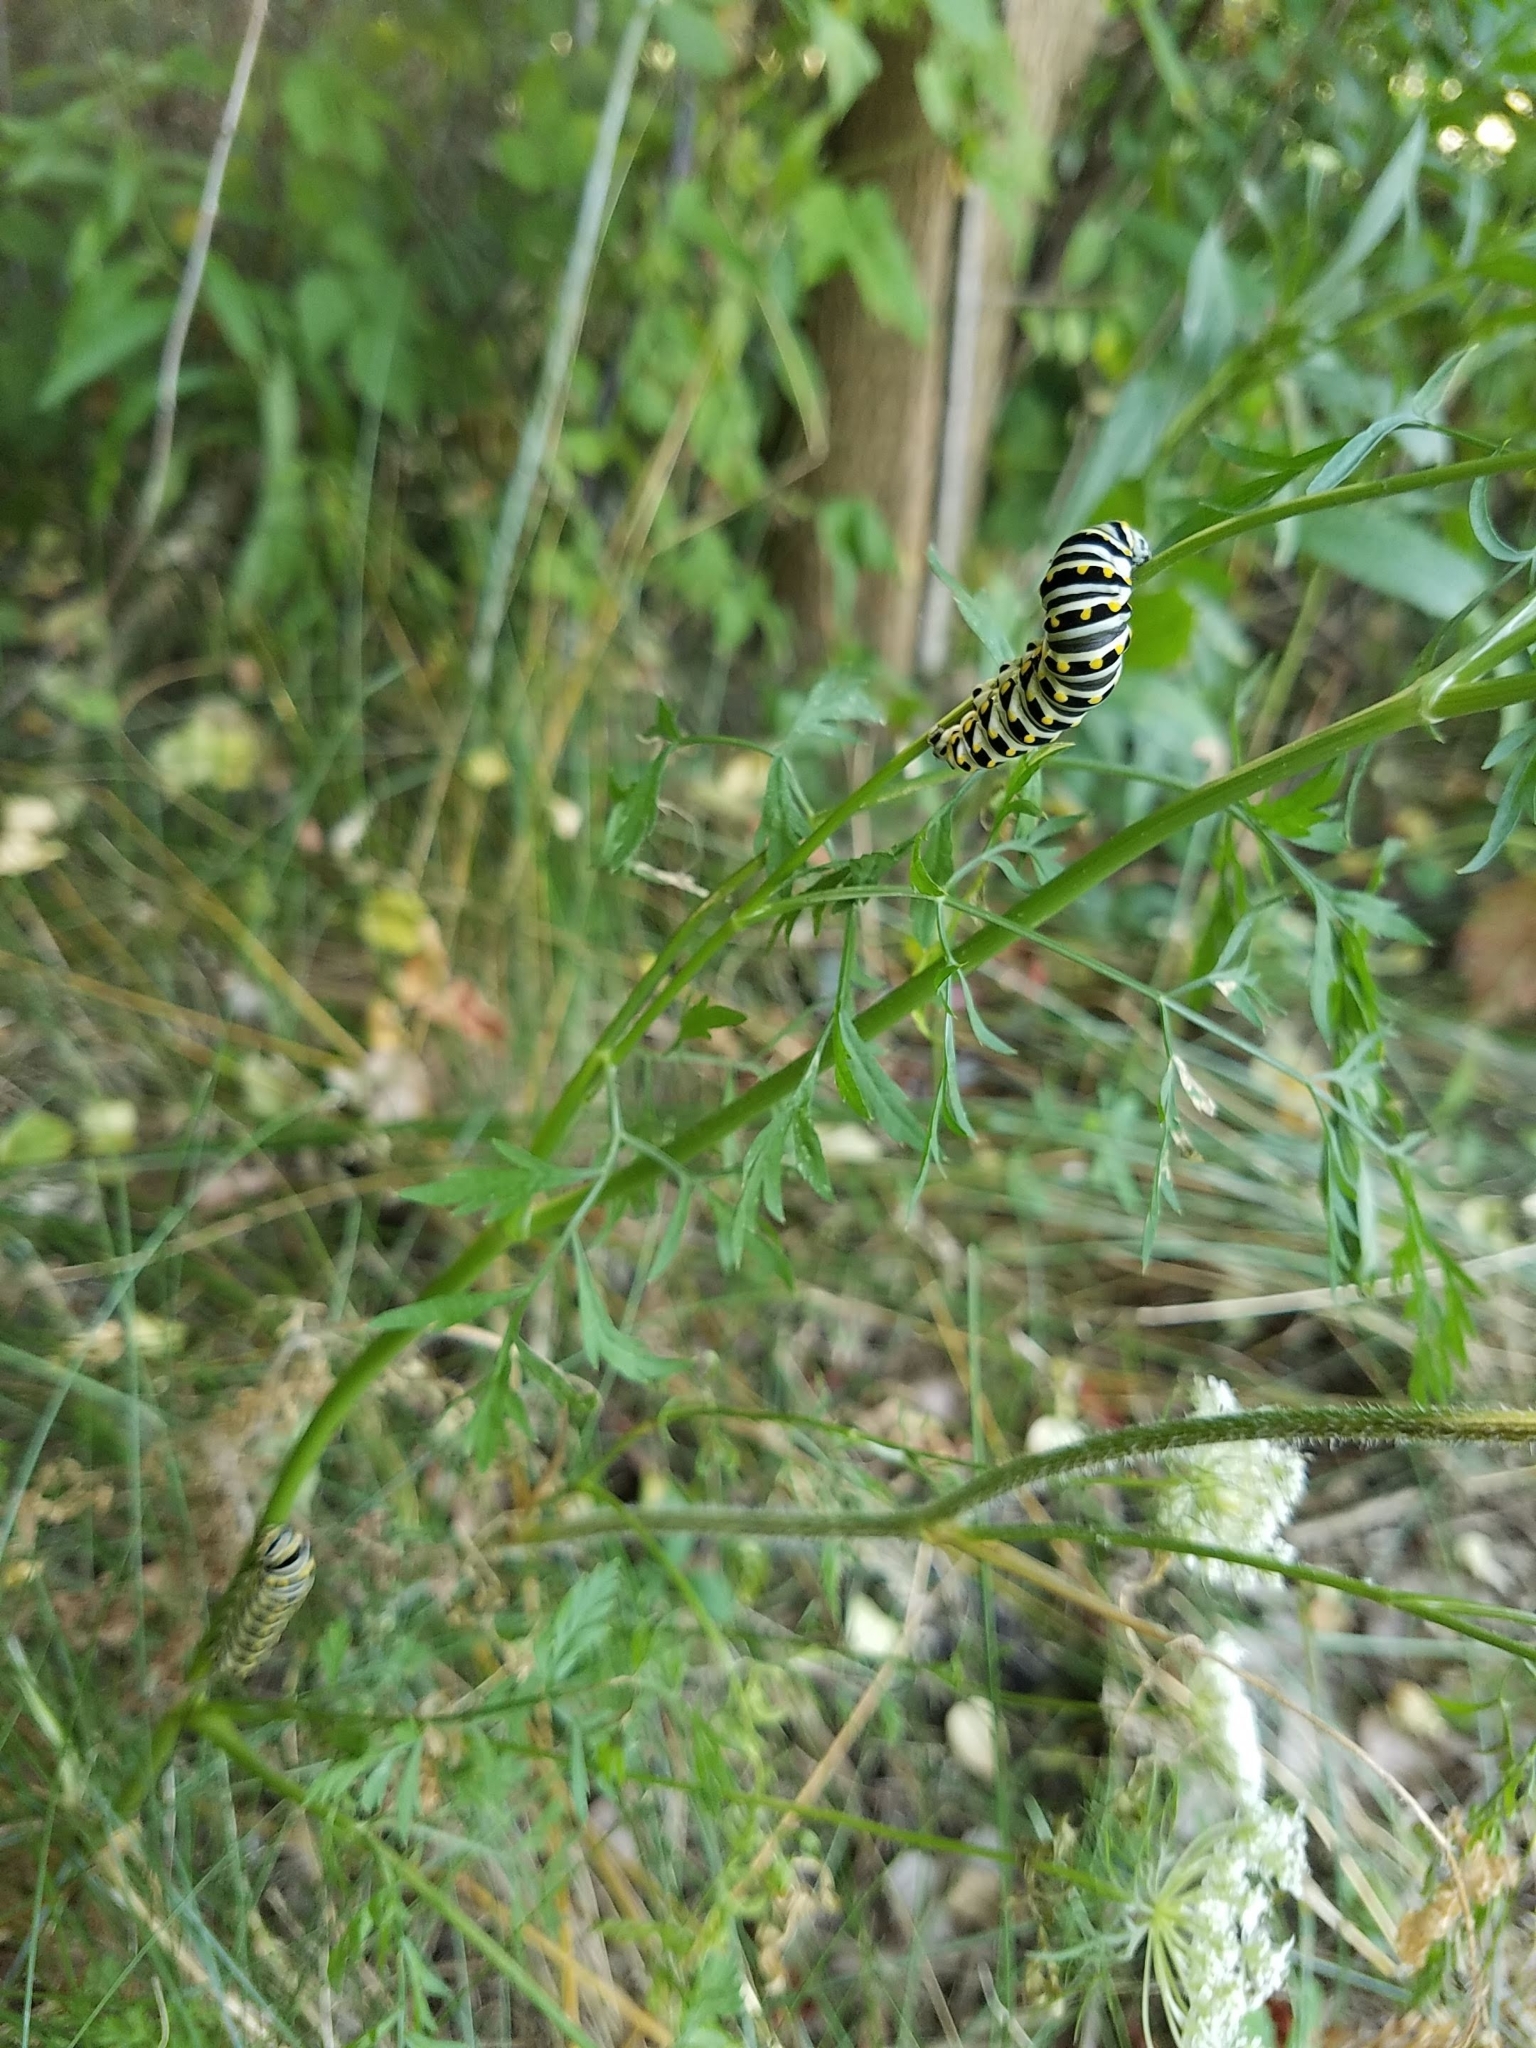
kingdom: Animalia
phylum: Arthropoda
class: Insecta
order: Lepidoptera
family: Papilionidae
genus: Papilio
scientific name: Papilio polyxenes
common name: Black swallowtail
